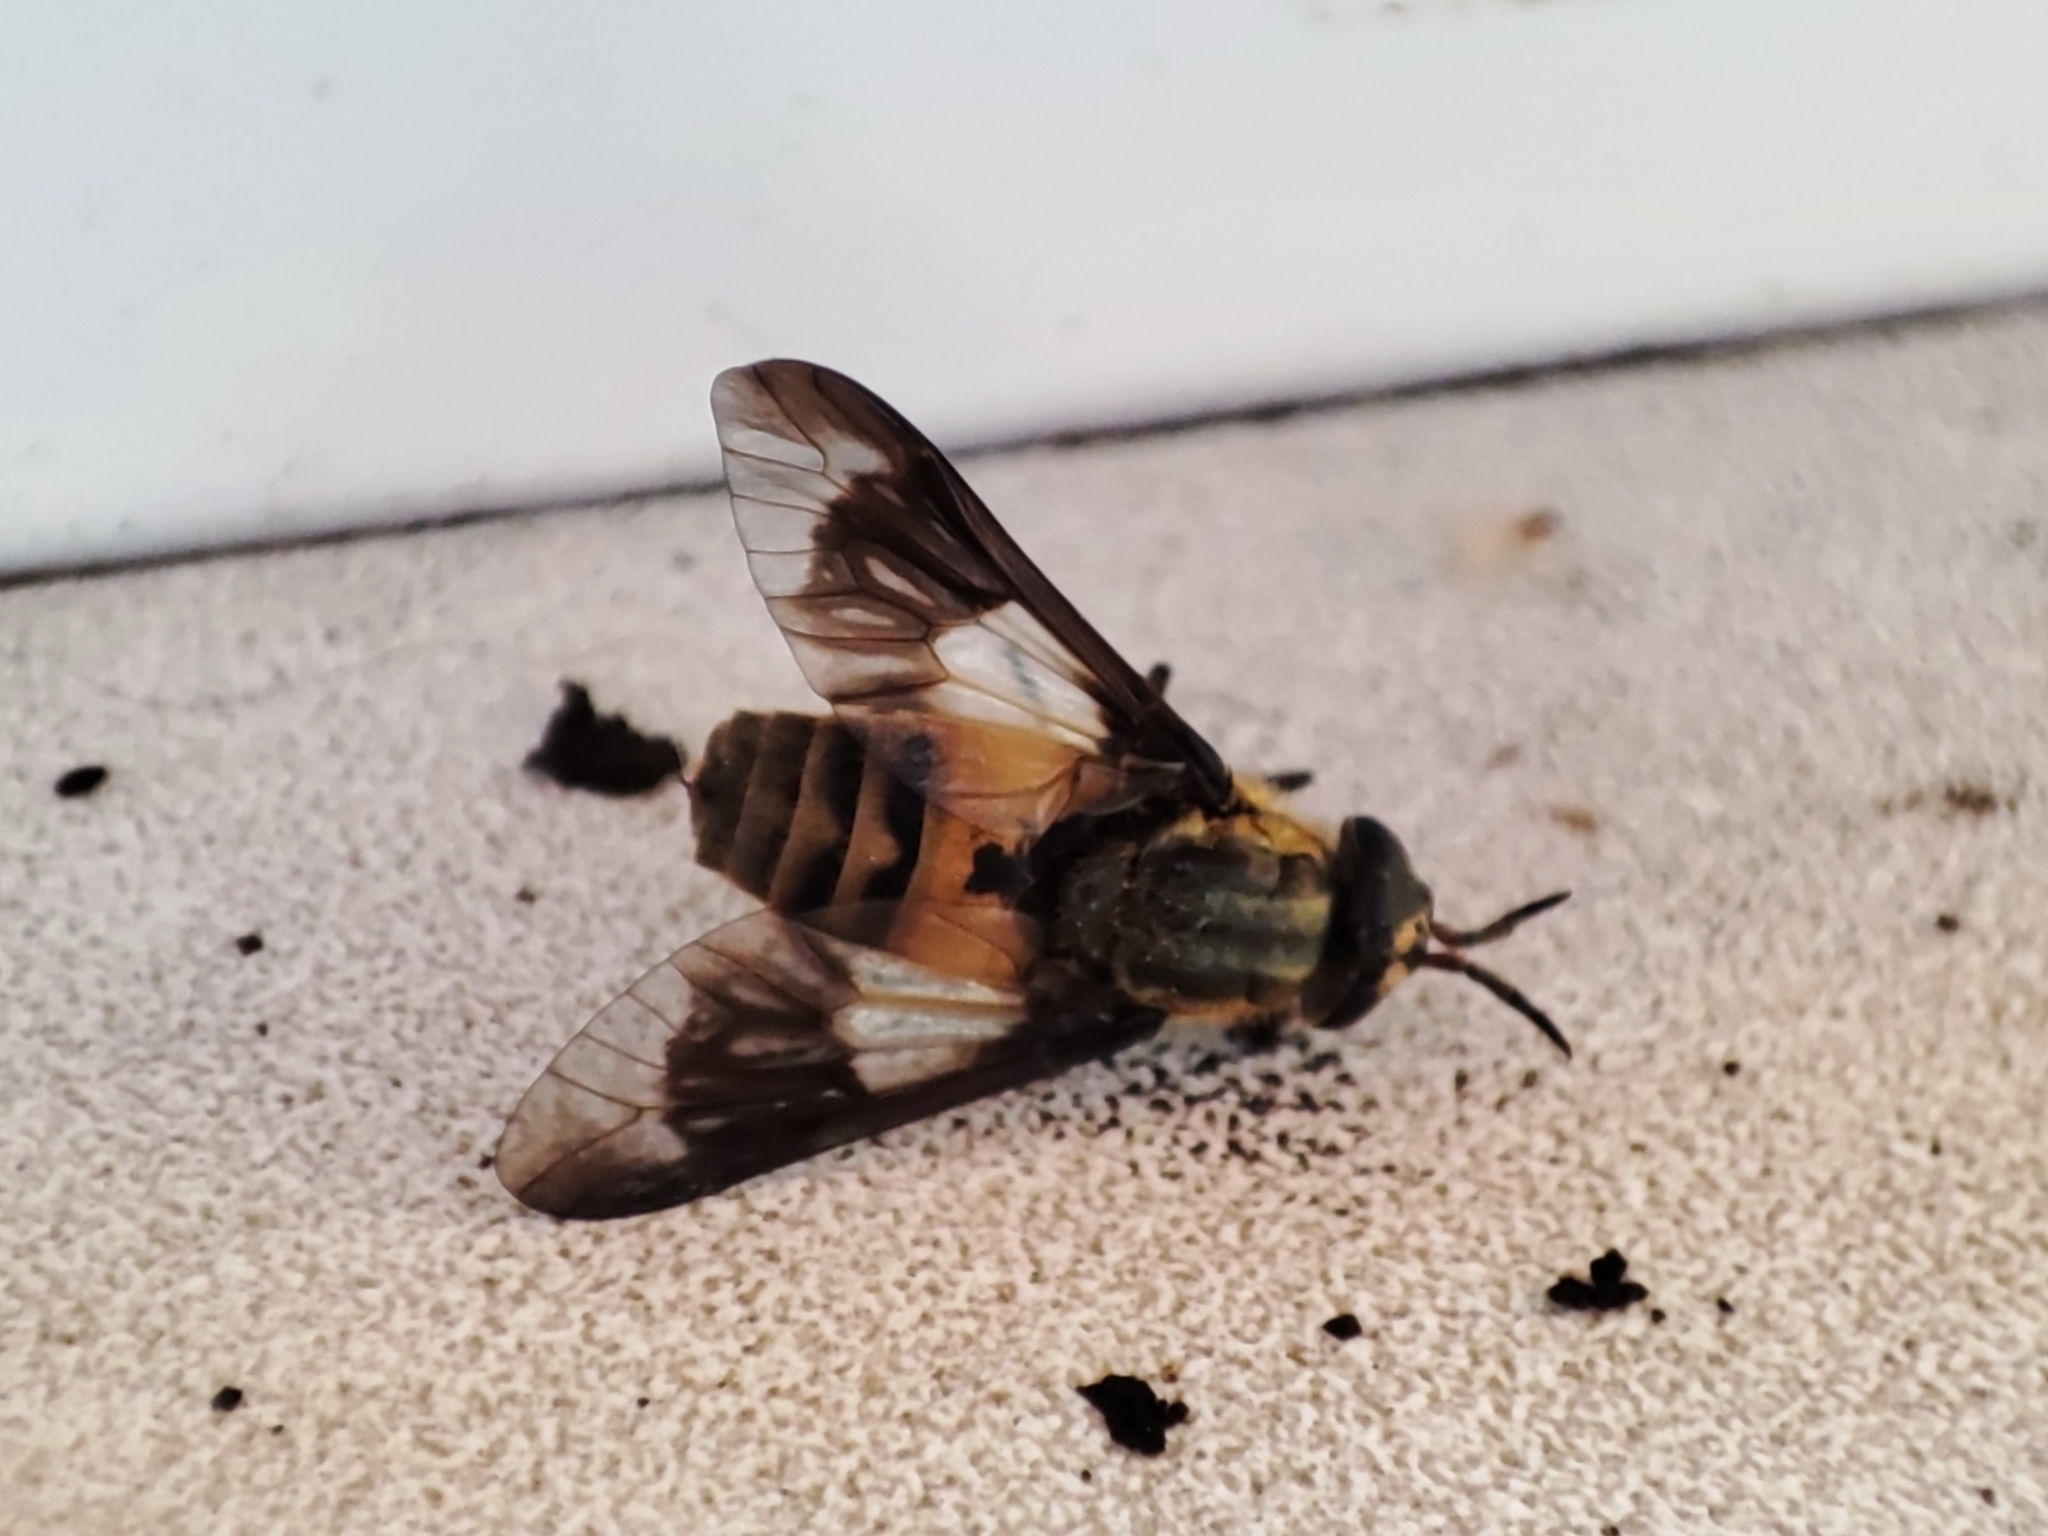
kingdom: Animalia
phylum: Arthropoda
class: Insecta
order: Diptera
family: Tabanidae
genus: Chrysops
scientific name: Chrysops viduatus
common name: Square-spot deerfly
